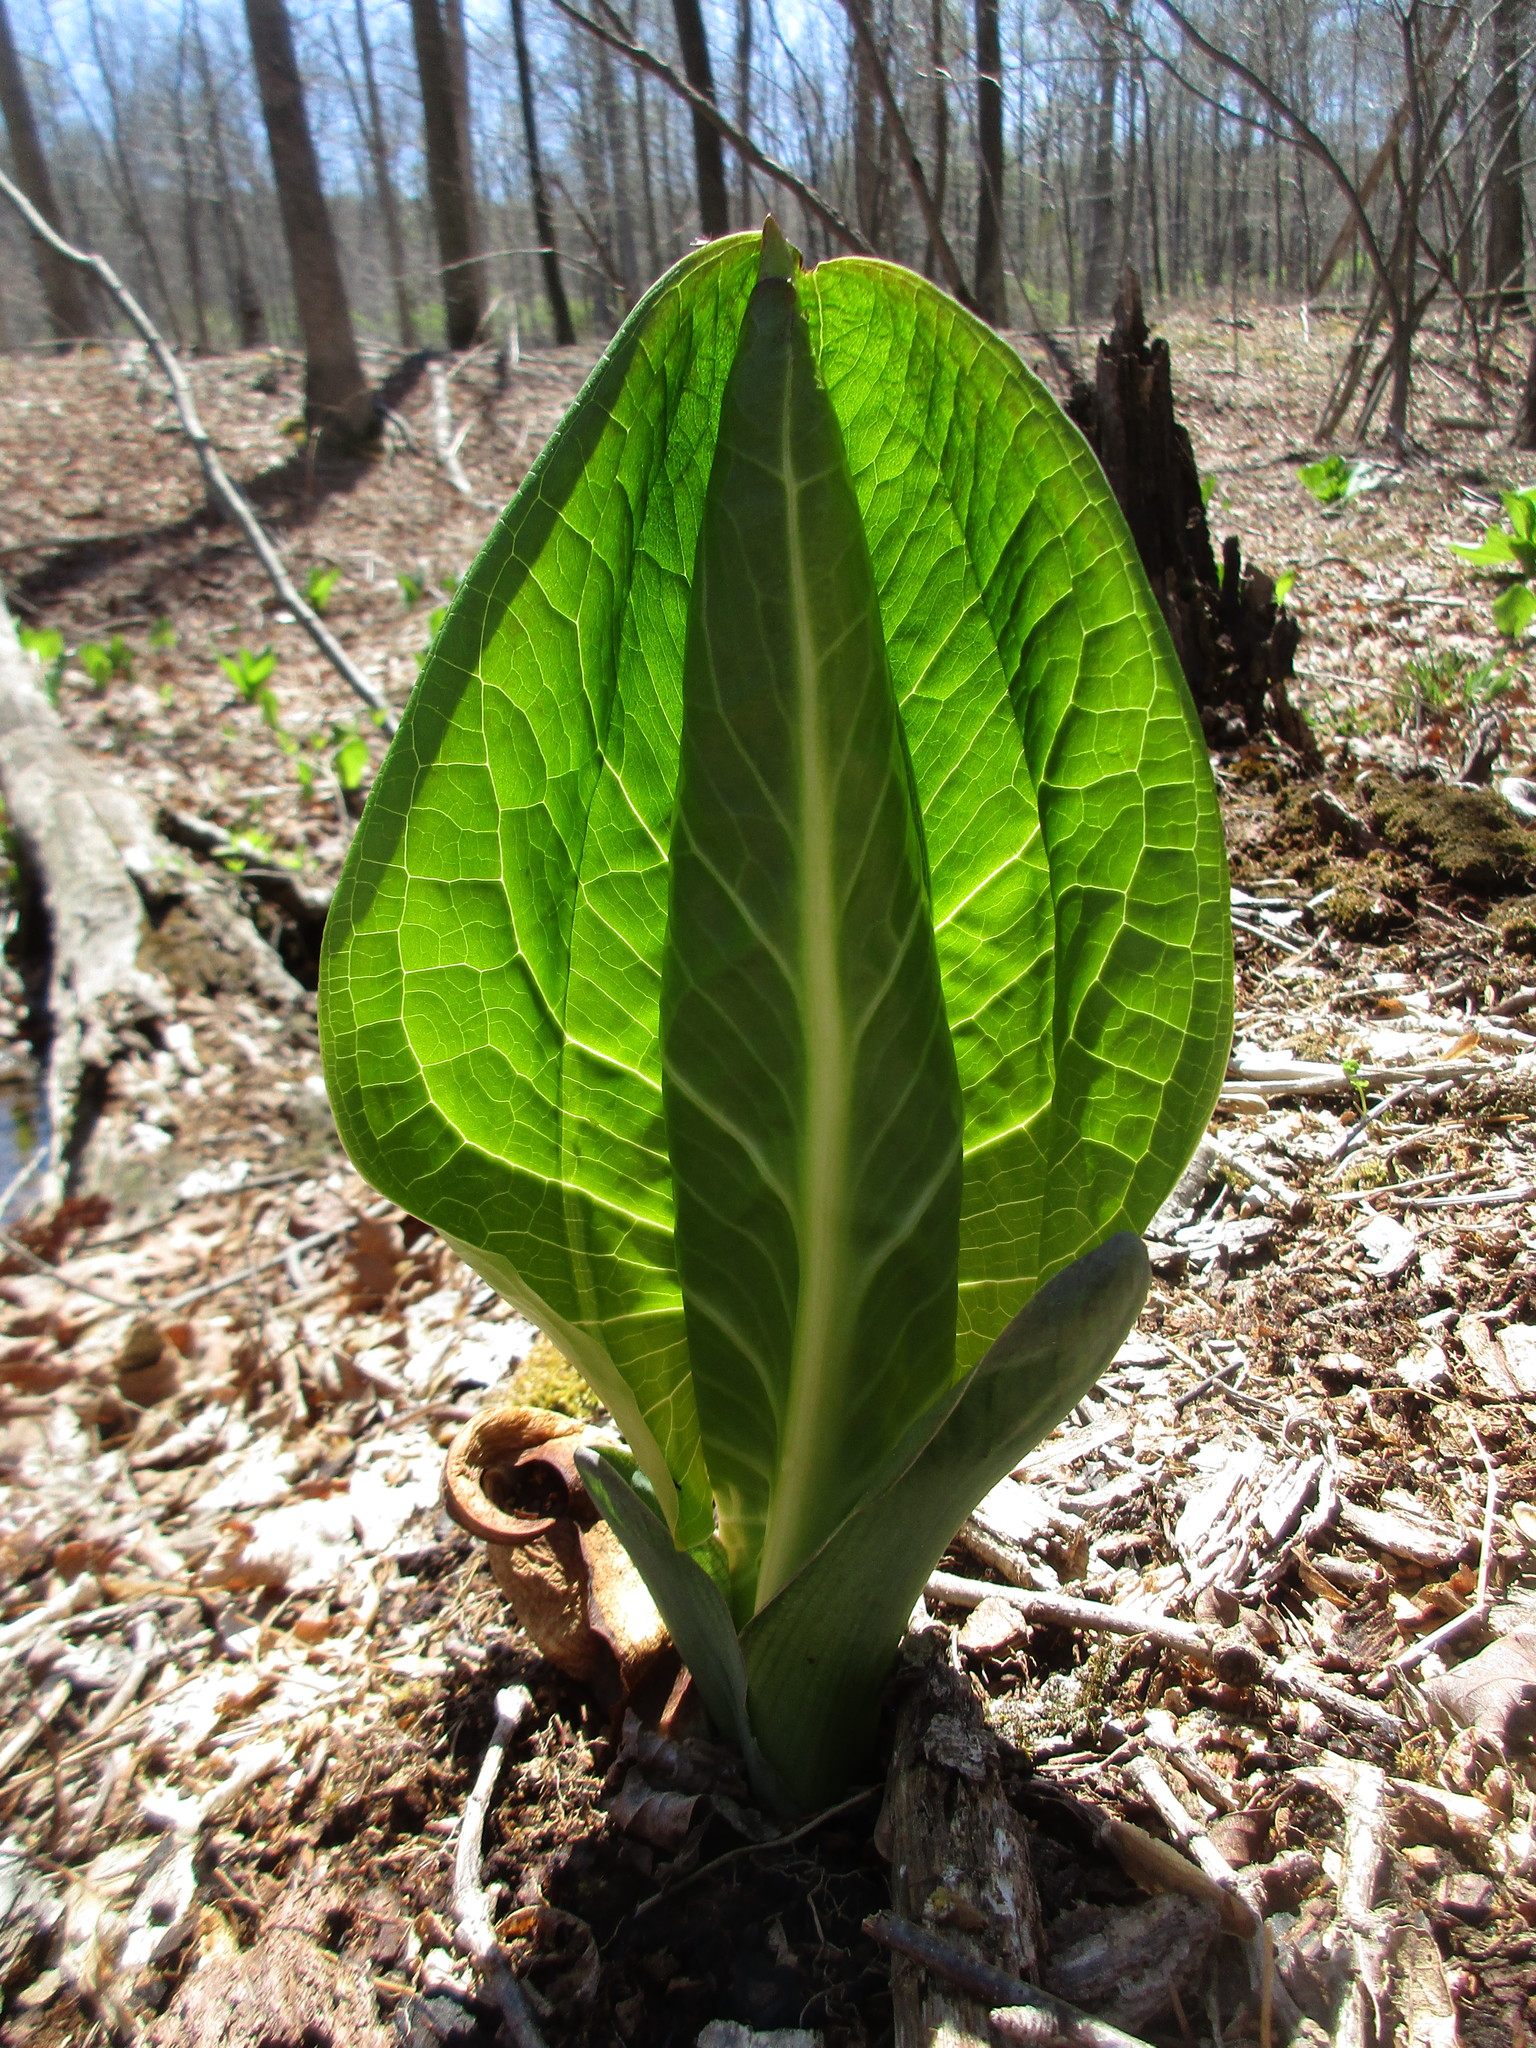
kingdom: Plantae
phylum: Tracheophyta
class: Liliopsida
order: Alismatales
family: Araceae
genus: Symplocarpus
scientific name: Symplocarpus foetidus
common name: Eastern skunk cabbage
